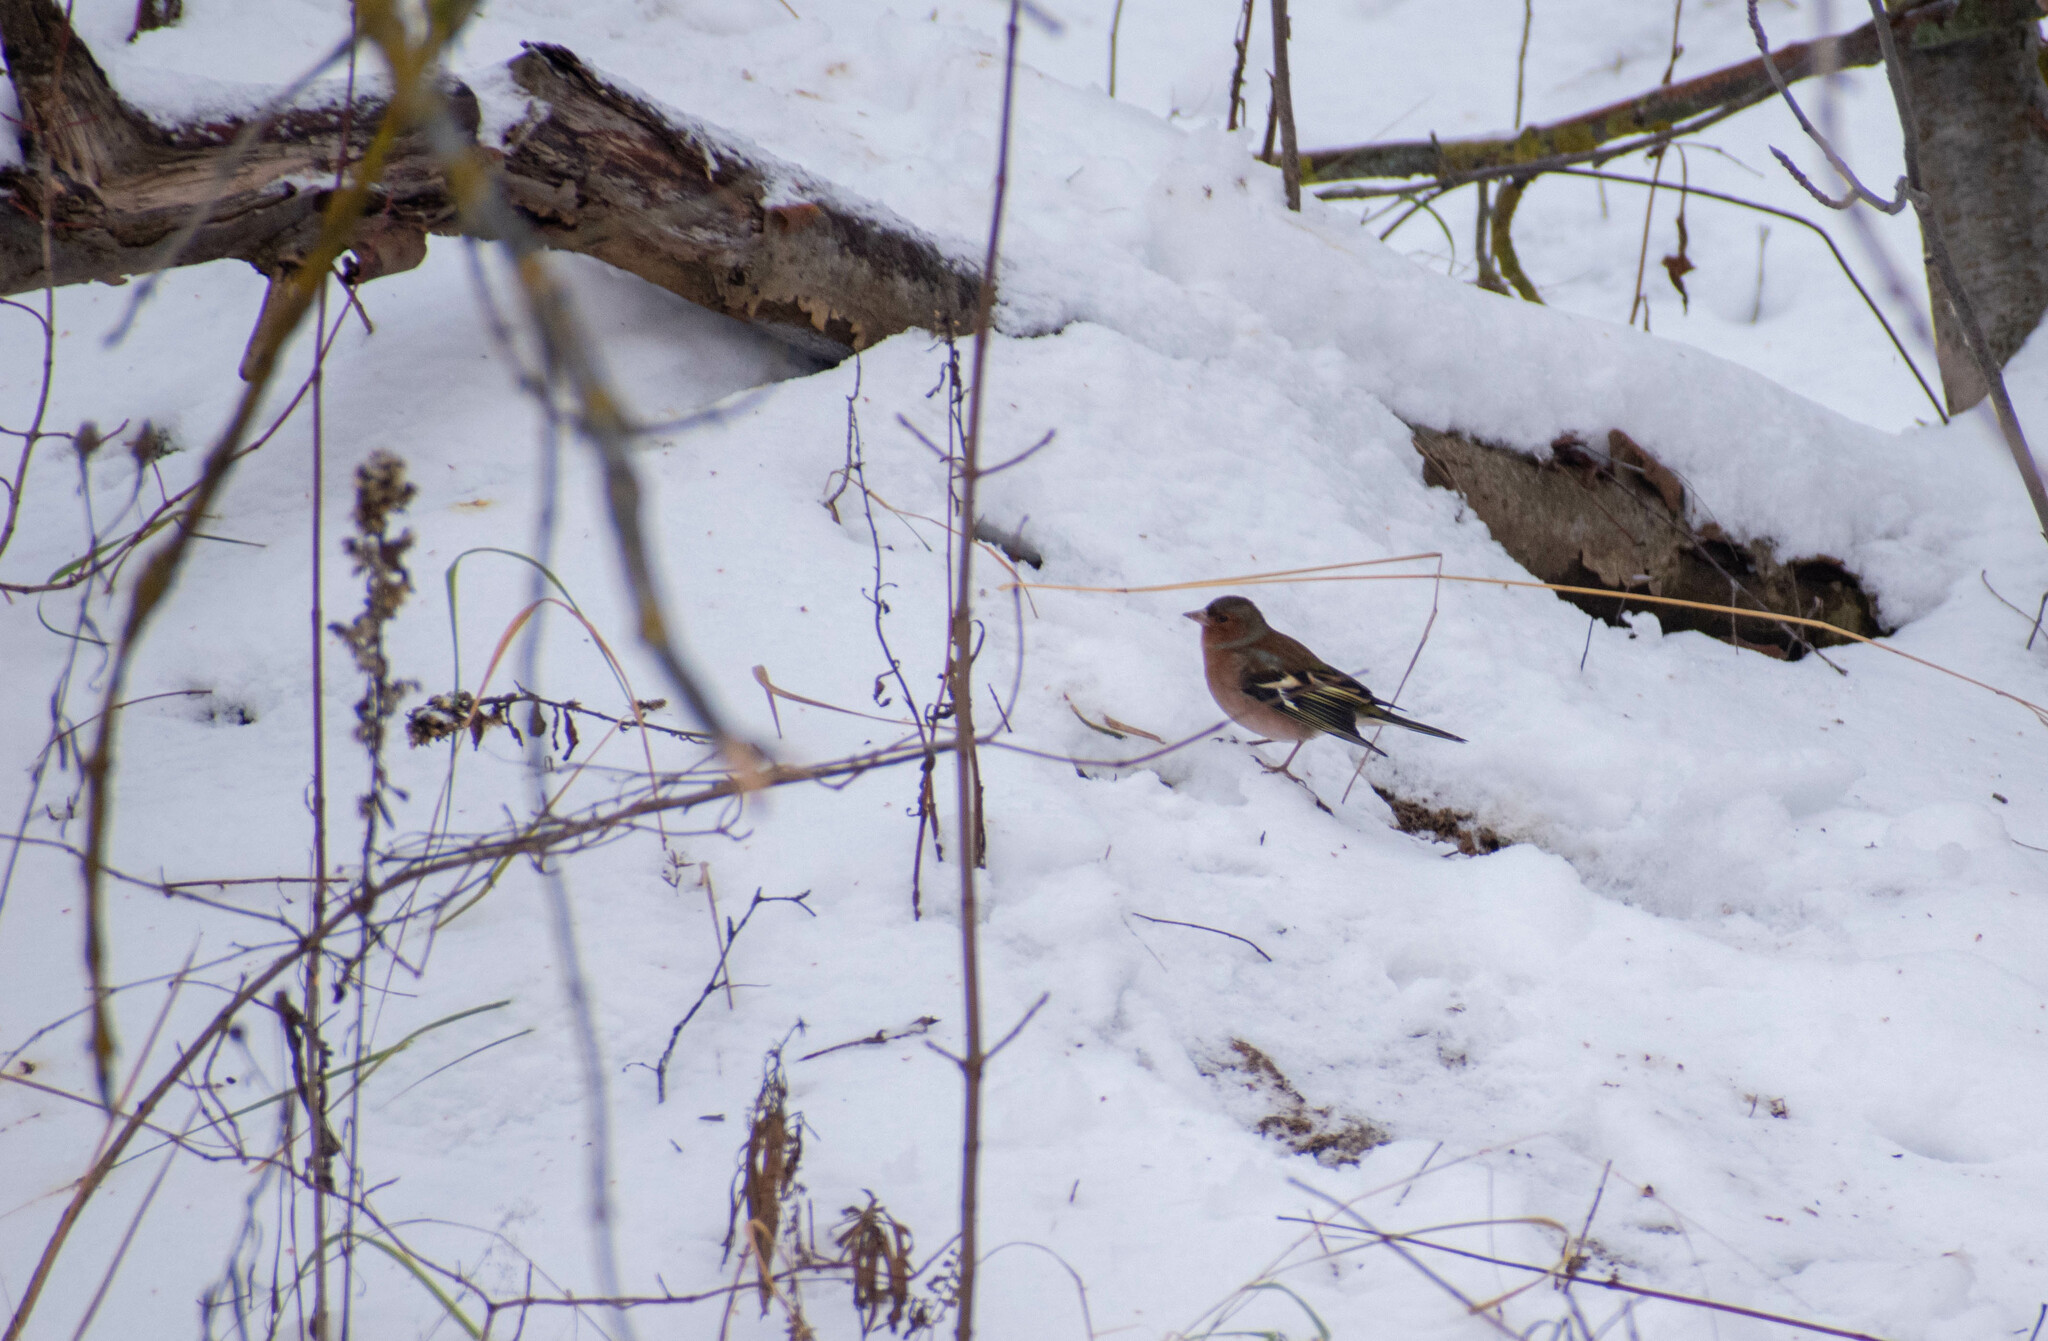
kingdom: Animalia
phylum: Chordata
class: Aves
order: Passeriformes
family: Fringillidae
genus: Fringilla
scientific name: Fringilla coelebs
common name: Common chaffinch
